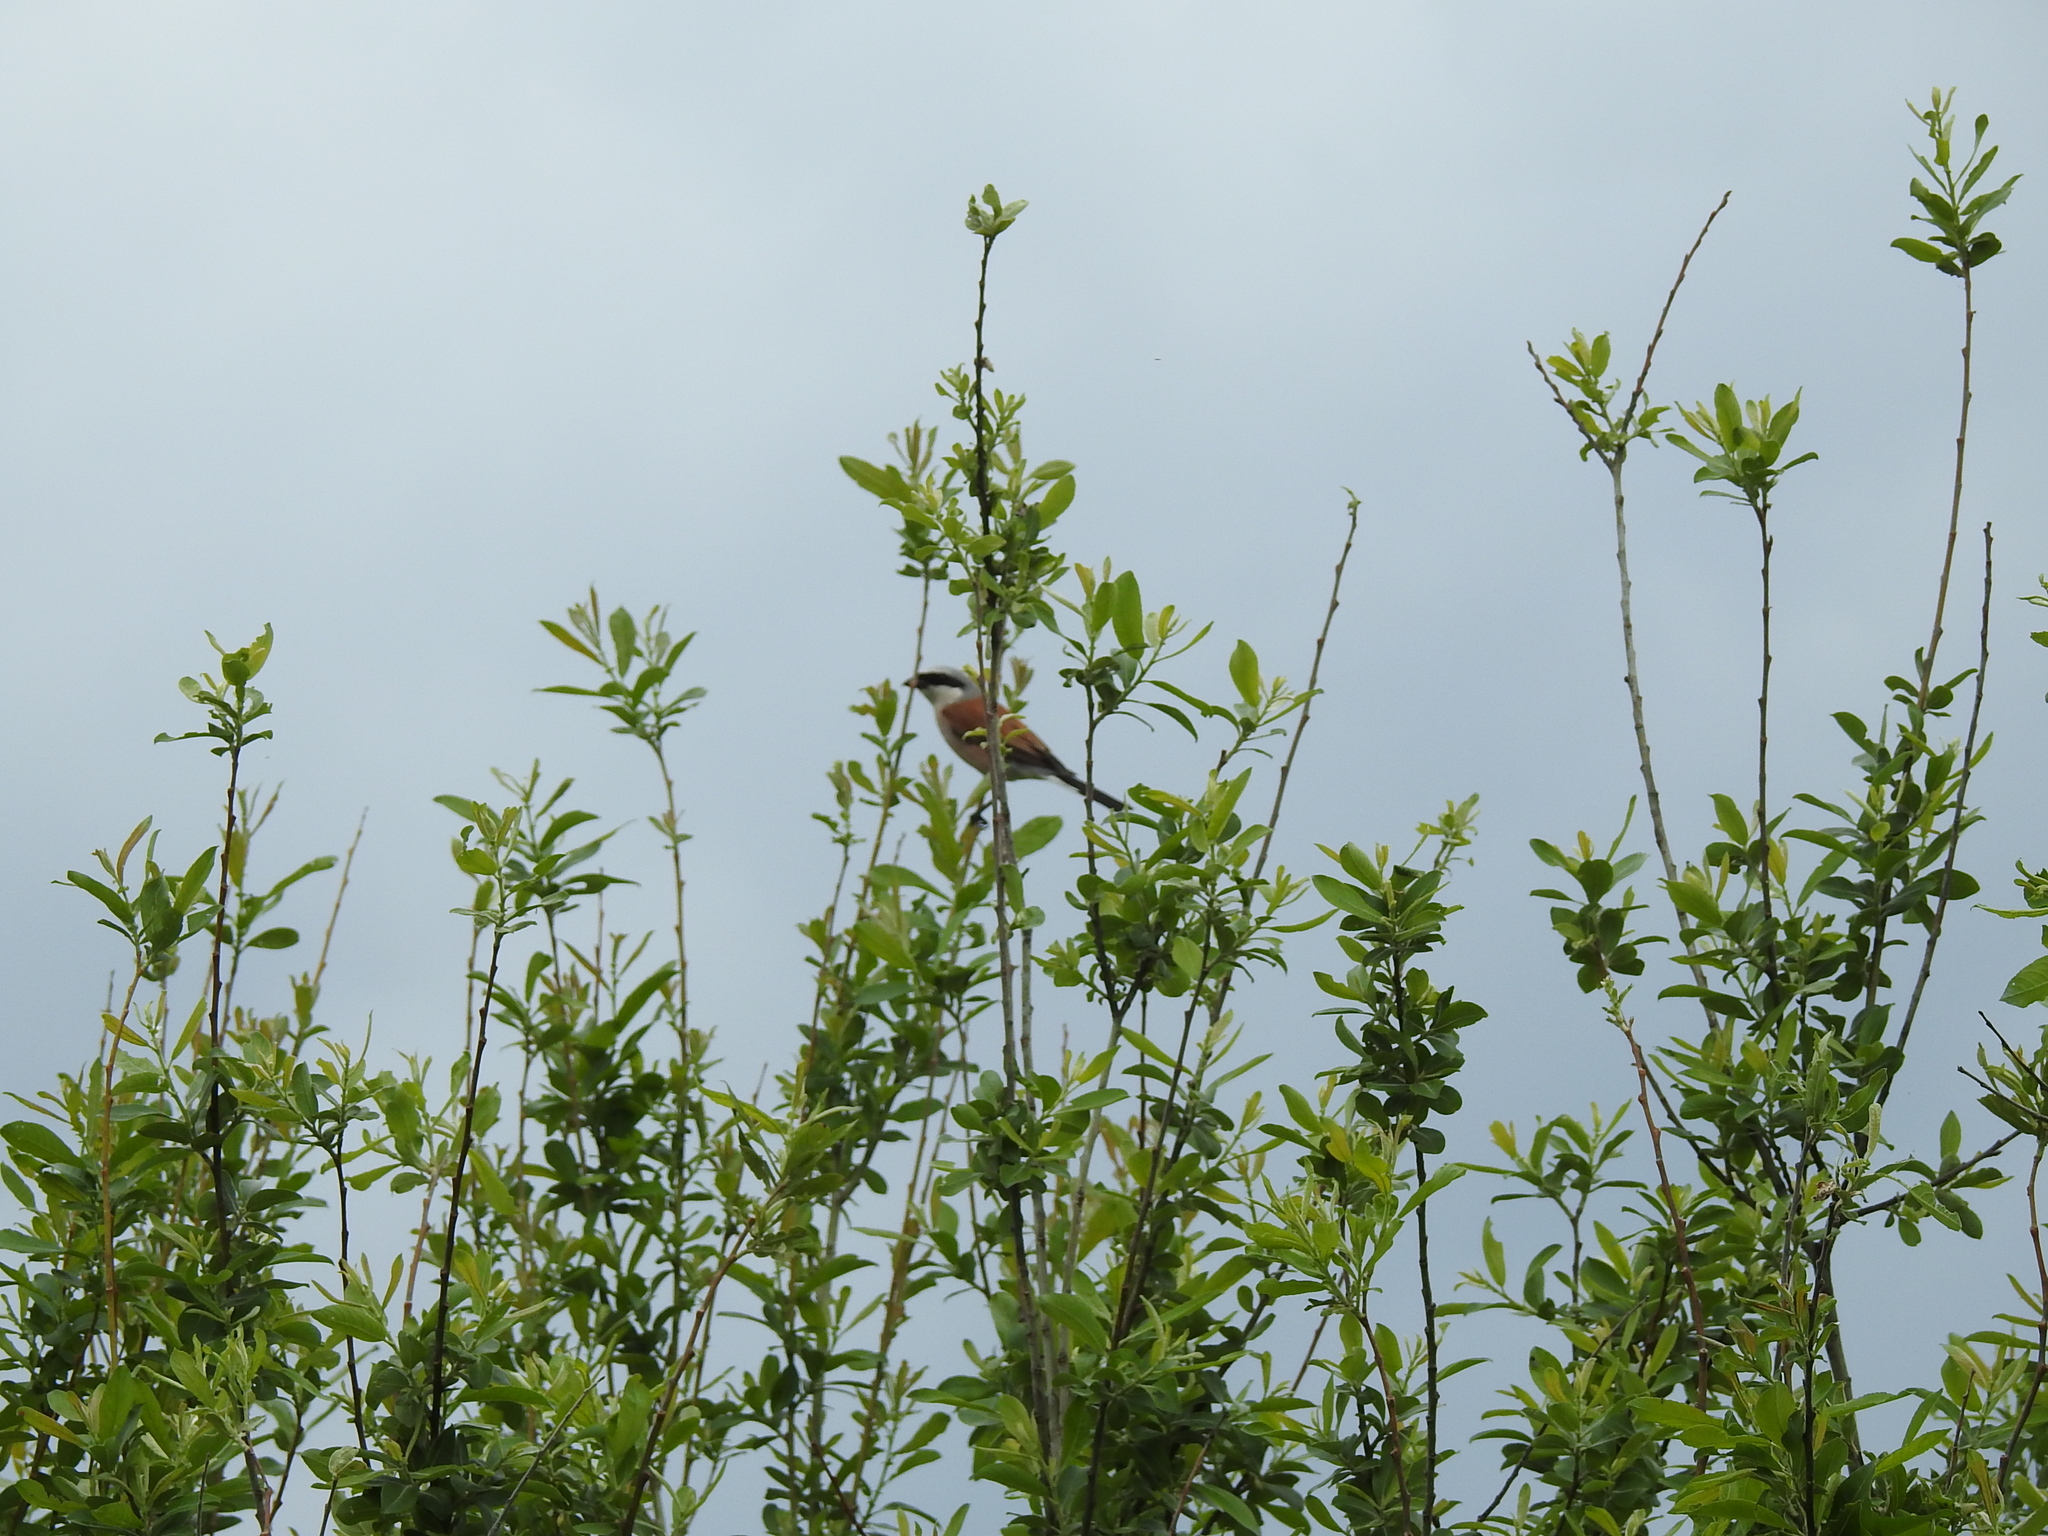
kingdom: Animalia
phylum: Chordata
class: Aves
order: Passeriformes
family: Laniidae
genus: Lanius
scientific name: Lanius collurio
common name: Red-backed shrike
